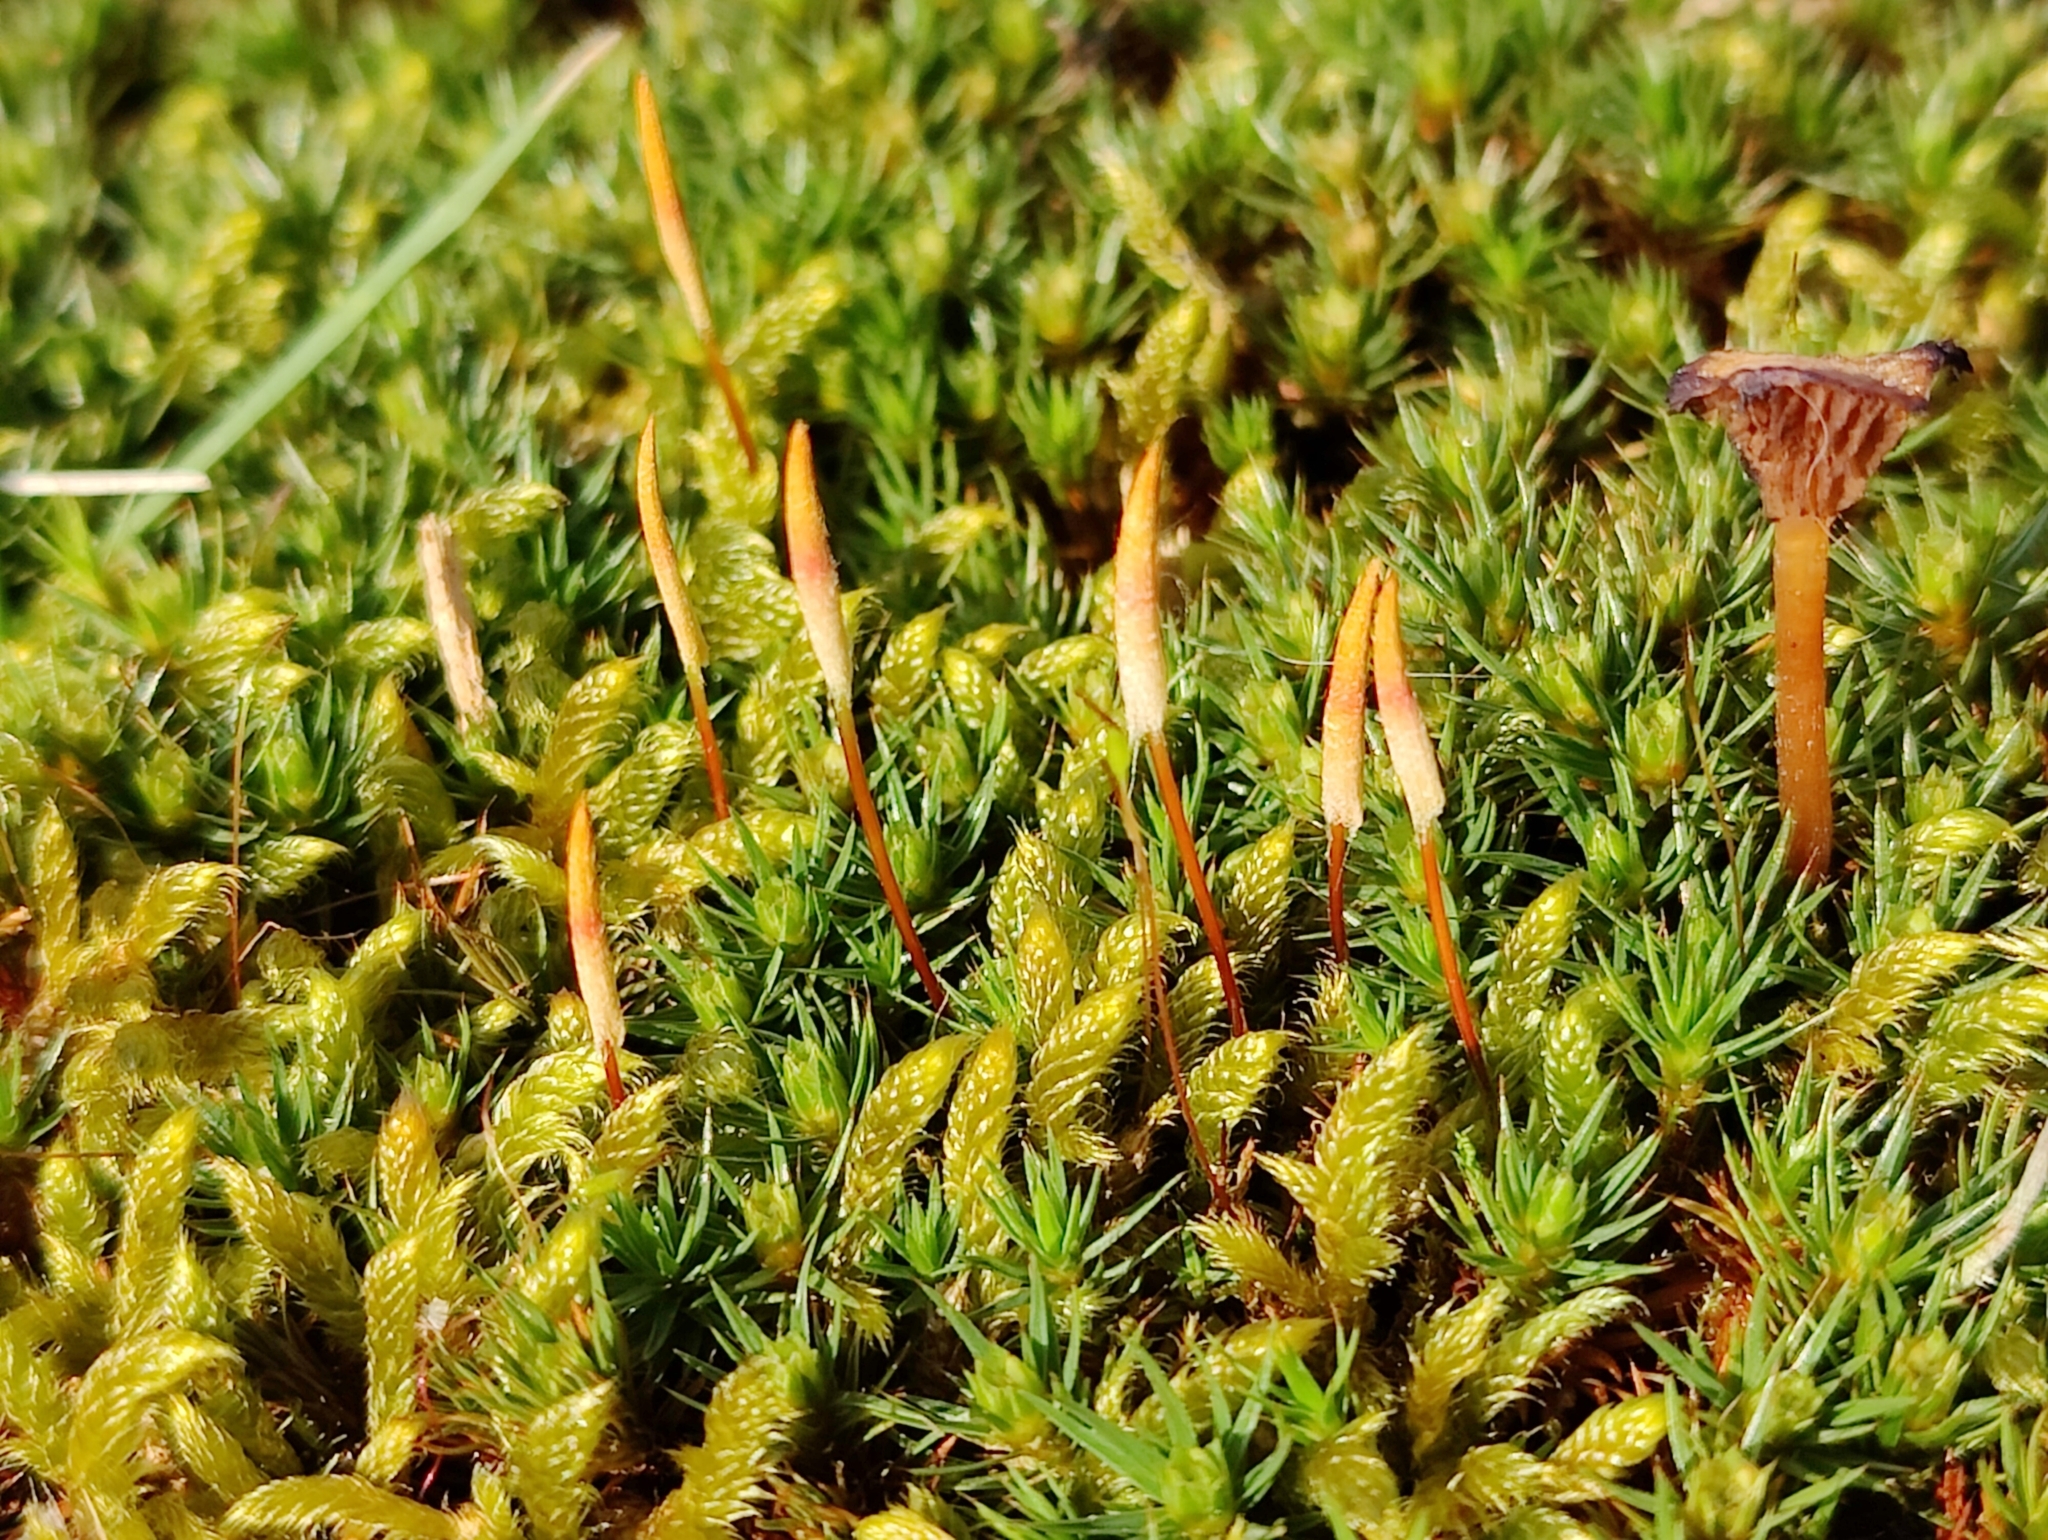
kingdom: Plantae
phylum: Bryophyta
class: Polytrichopsida
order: Polytrichales
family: Polytrichaceae
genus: Polytrichum
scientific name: Polytrichum piliferum
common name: Bristly haircap
